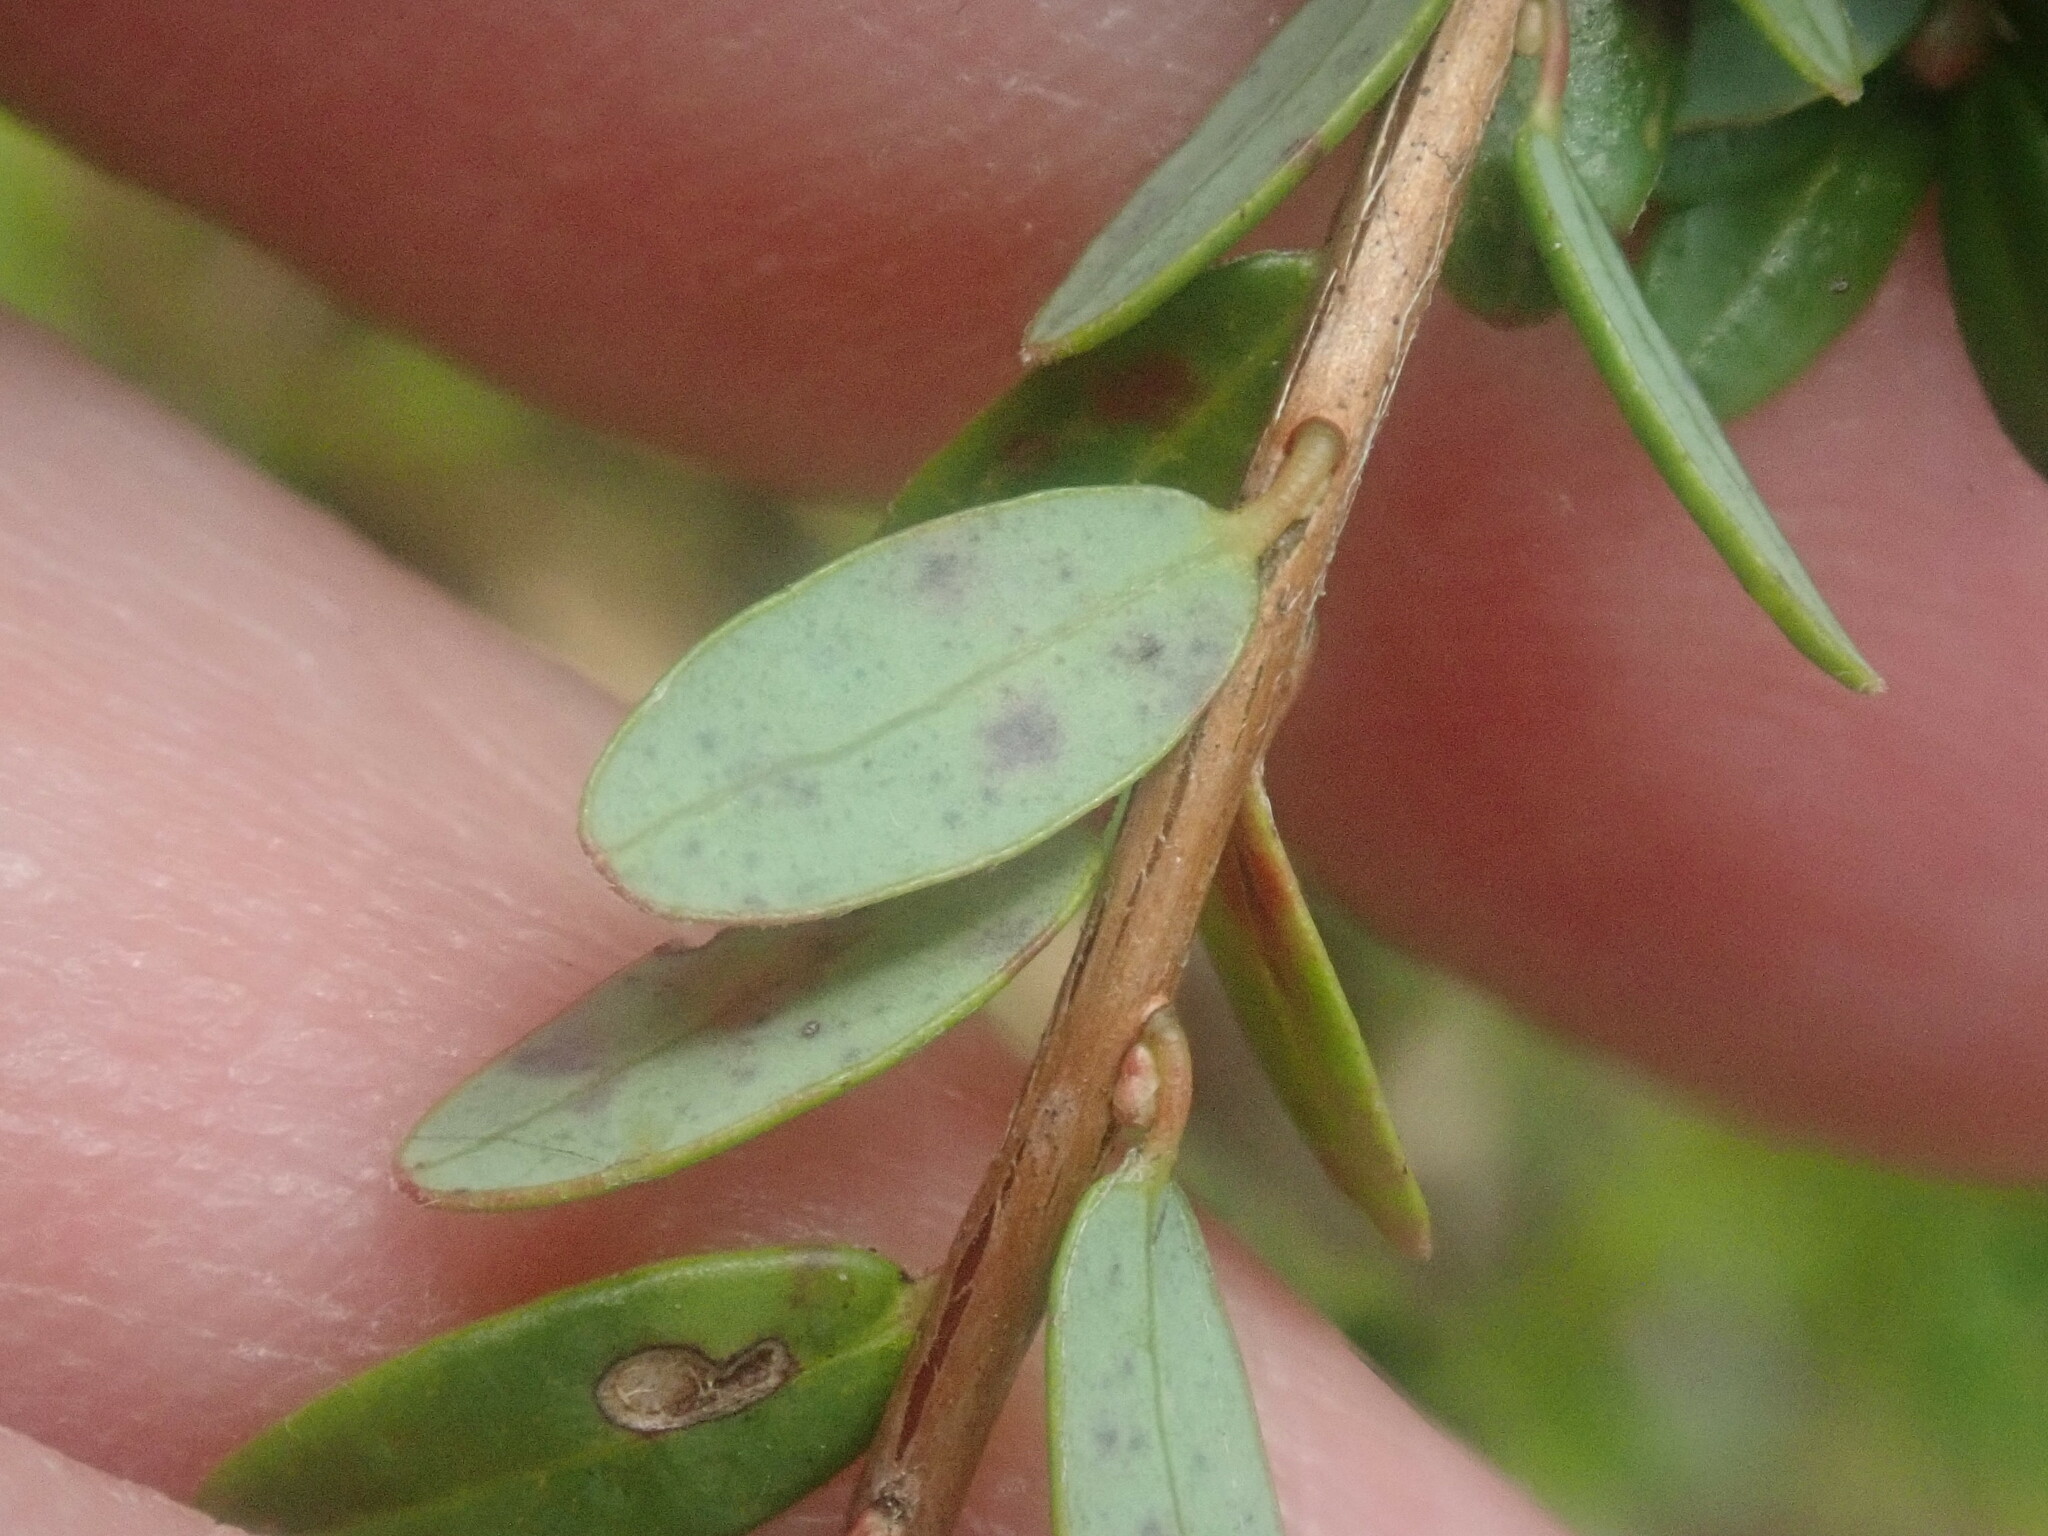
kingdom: Plantae
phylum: Tracheophyta
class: Magnoliopsida
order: Ericales
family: Ericaceae
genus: Vaccinium
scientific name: Vaccinium macrocarpon
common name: American cranberry
